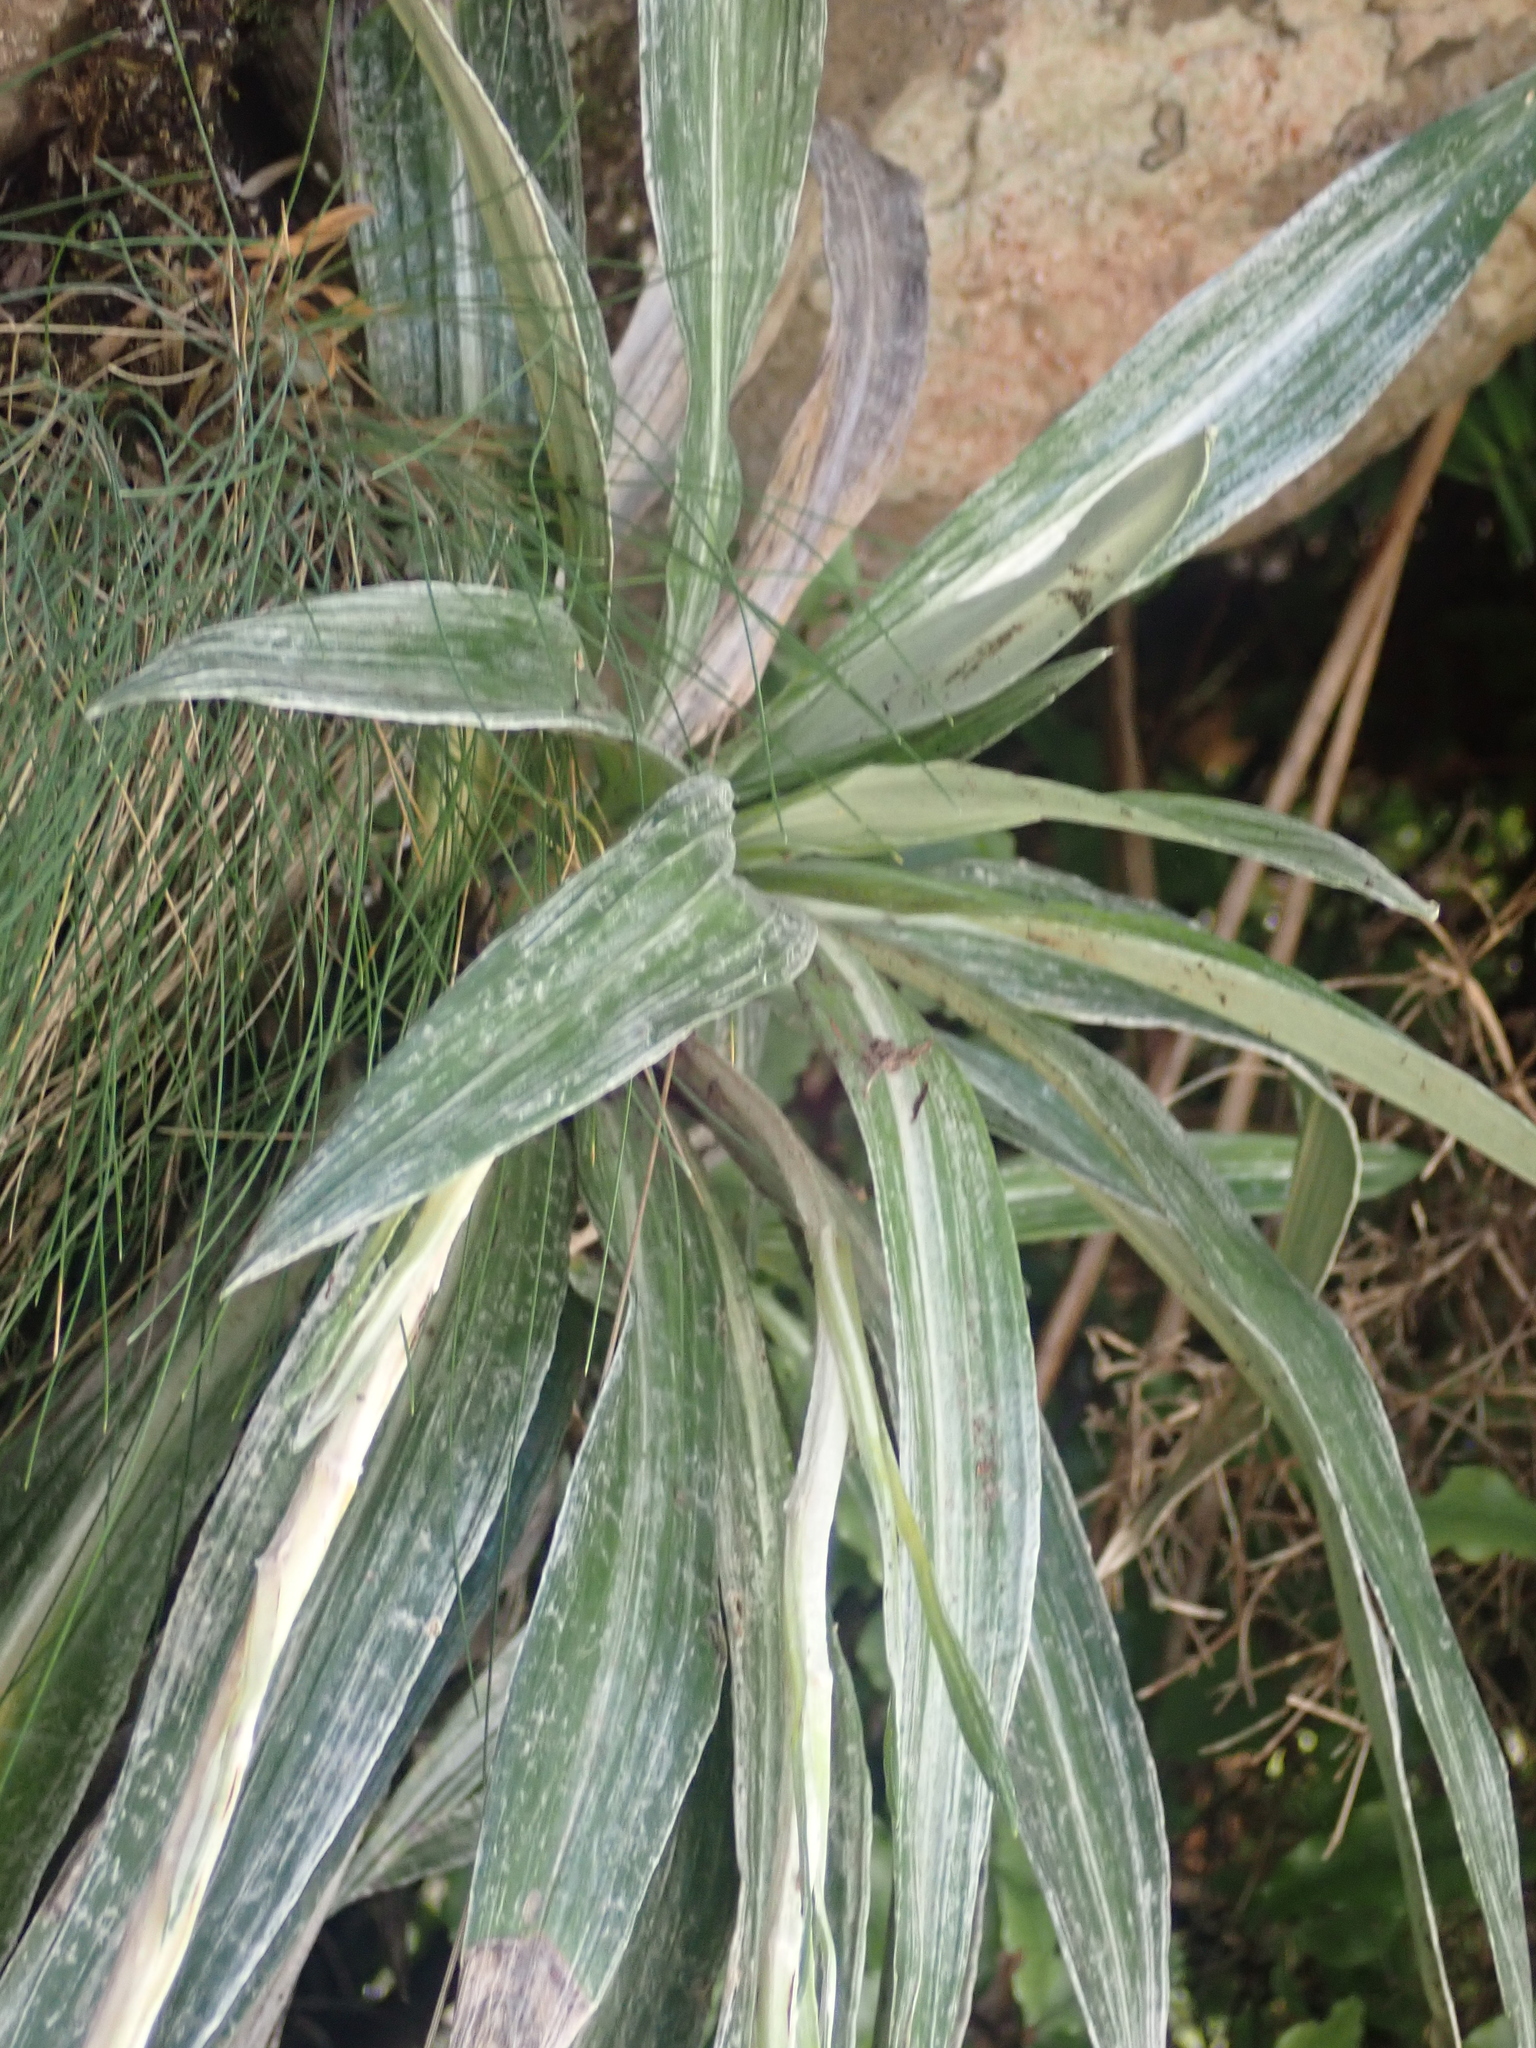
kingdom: Plantae
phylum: Tracheophyta
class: Magnoliopsida
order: Asterales
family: Asteraceae
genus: Celmisia
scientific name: Celmisia monroi
